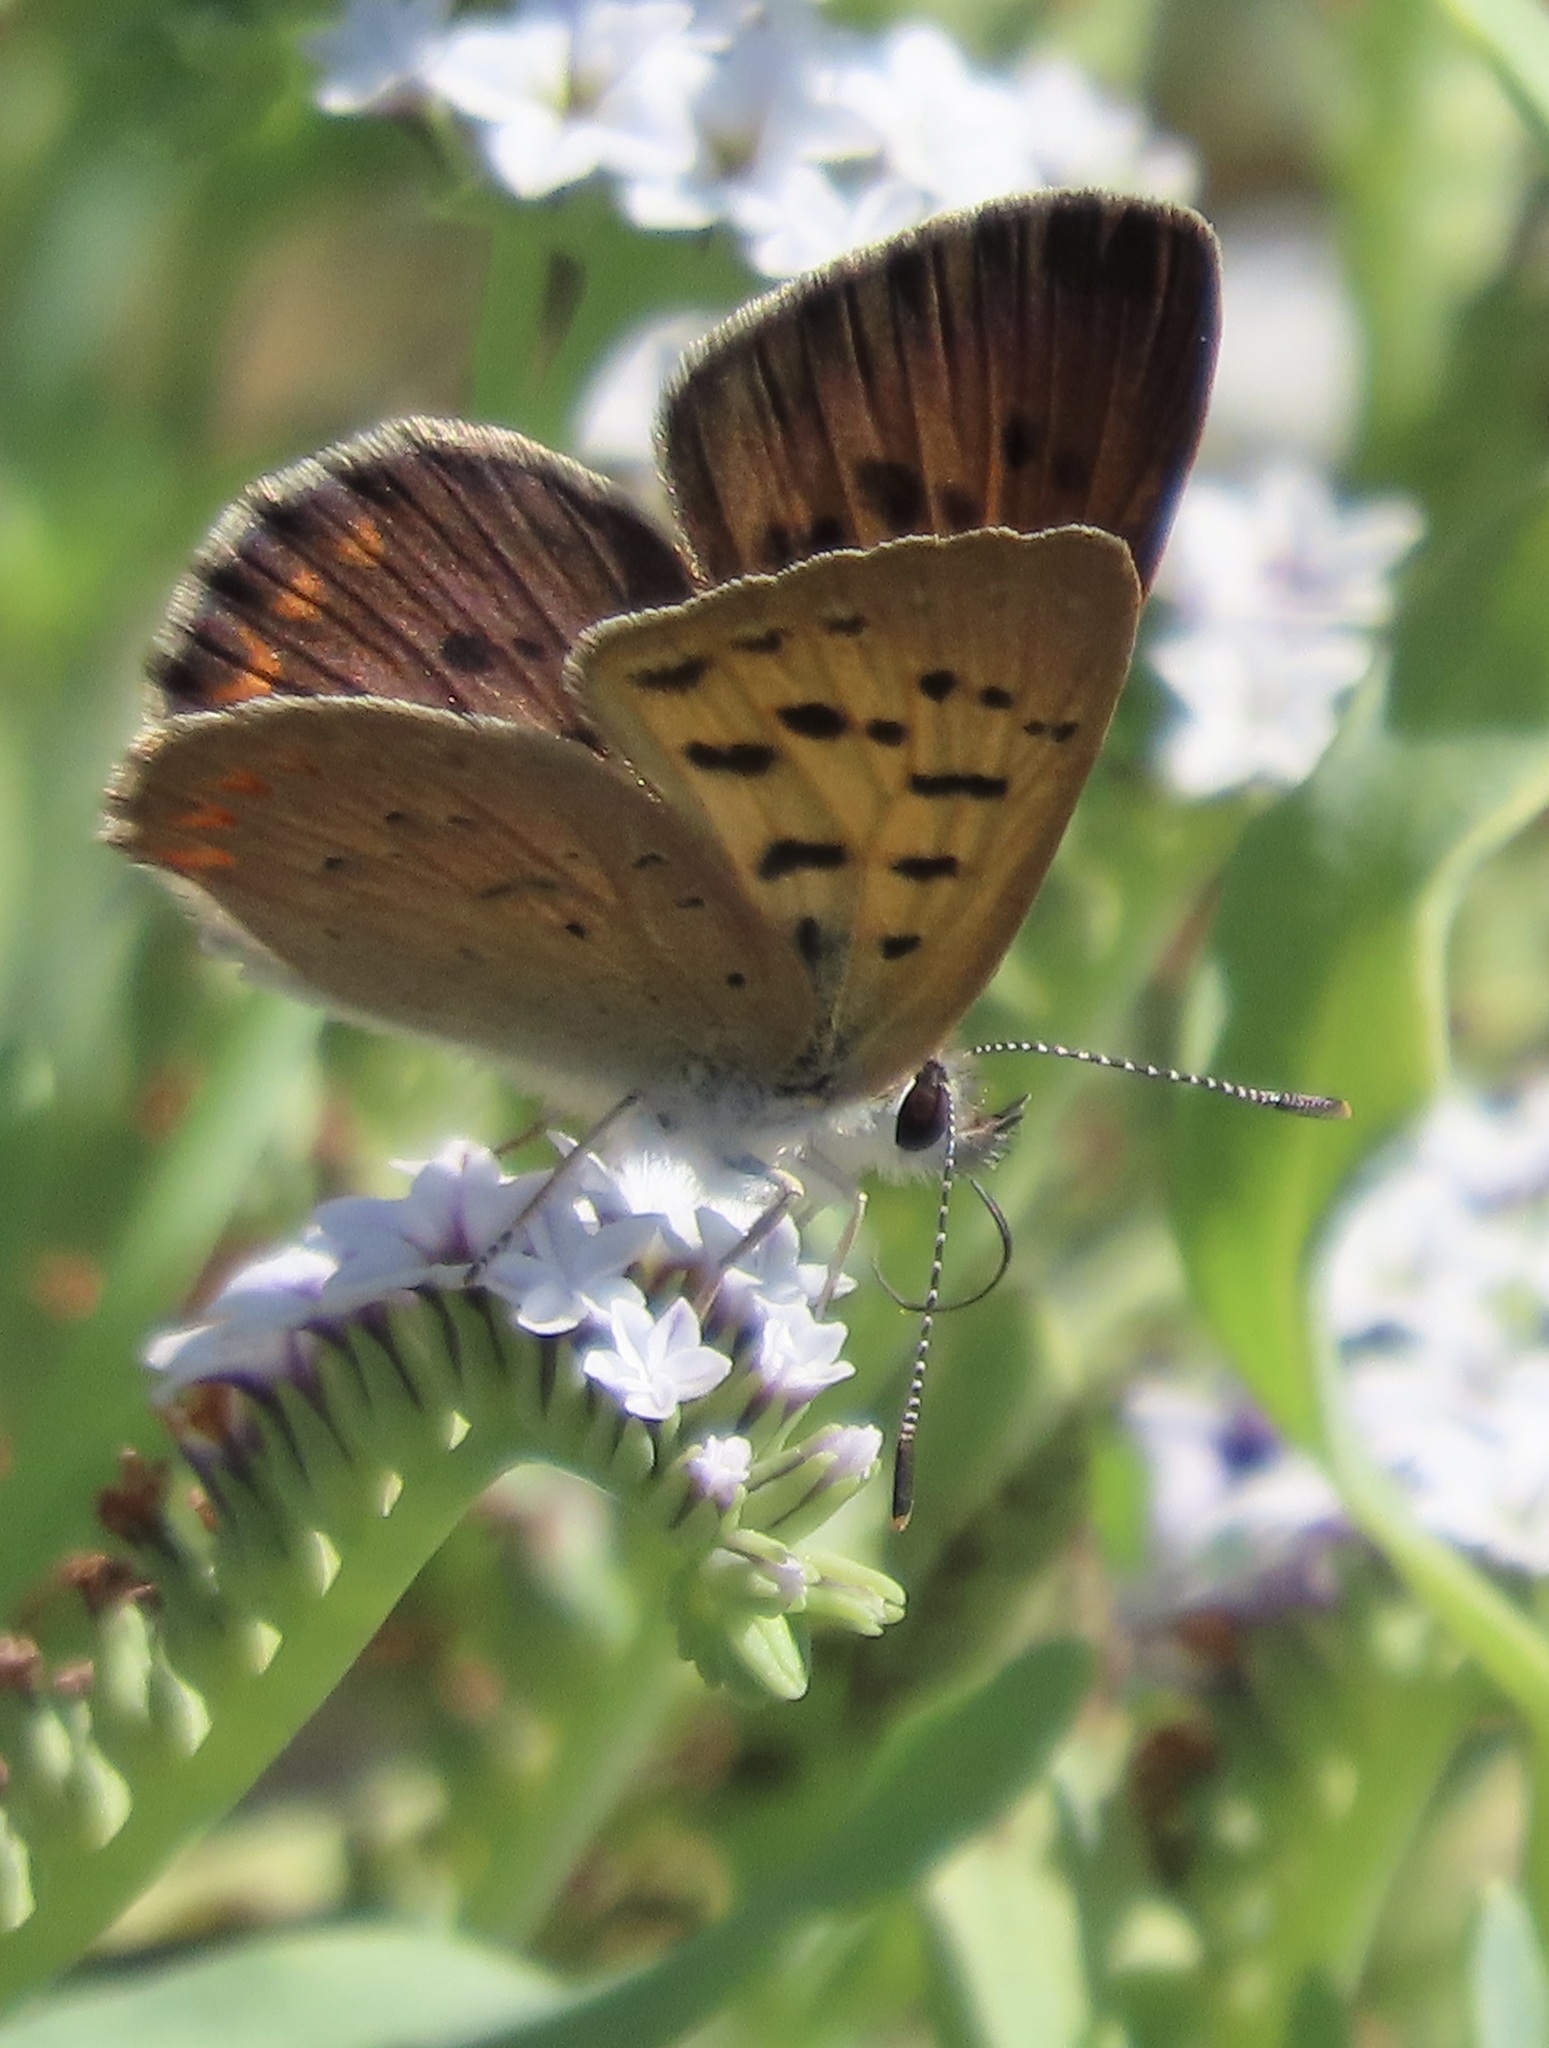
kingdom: Animalia
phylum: Arthropoda
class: Insecta
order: Lepidoptera
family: Lycaenidae
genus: Tharsalea
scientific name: Tharsalea helloides
